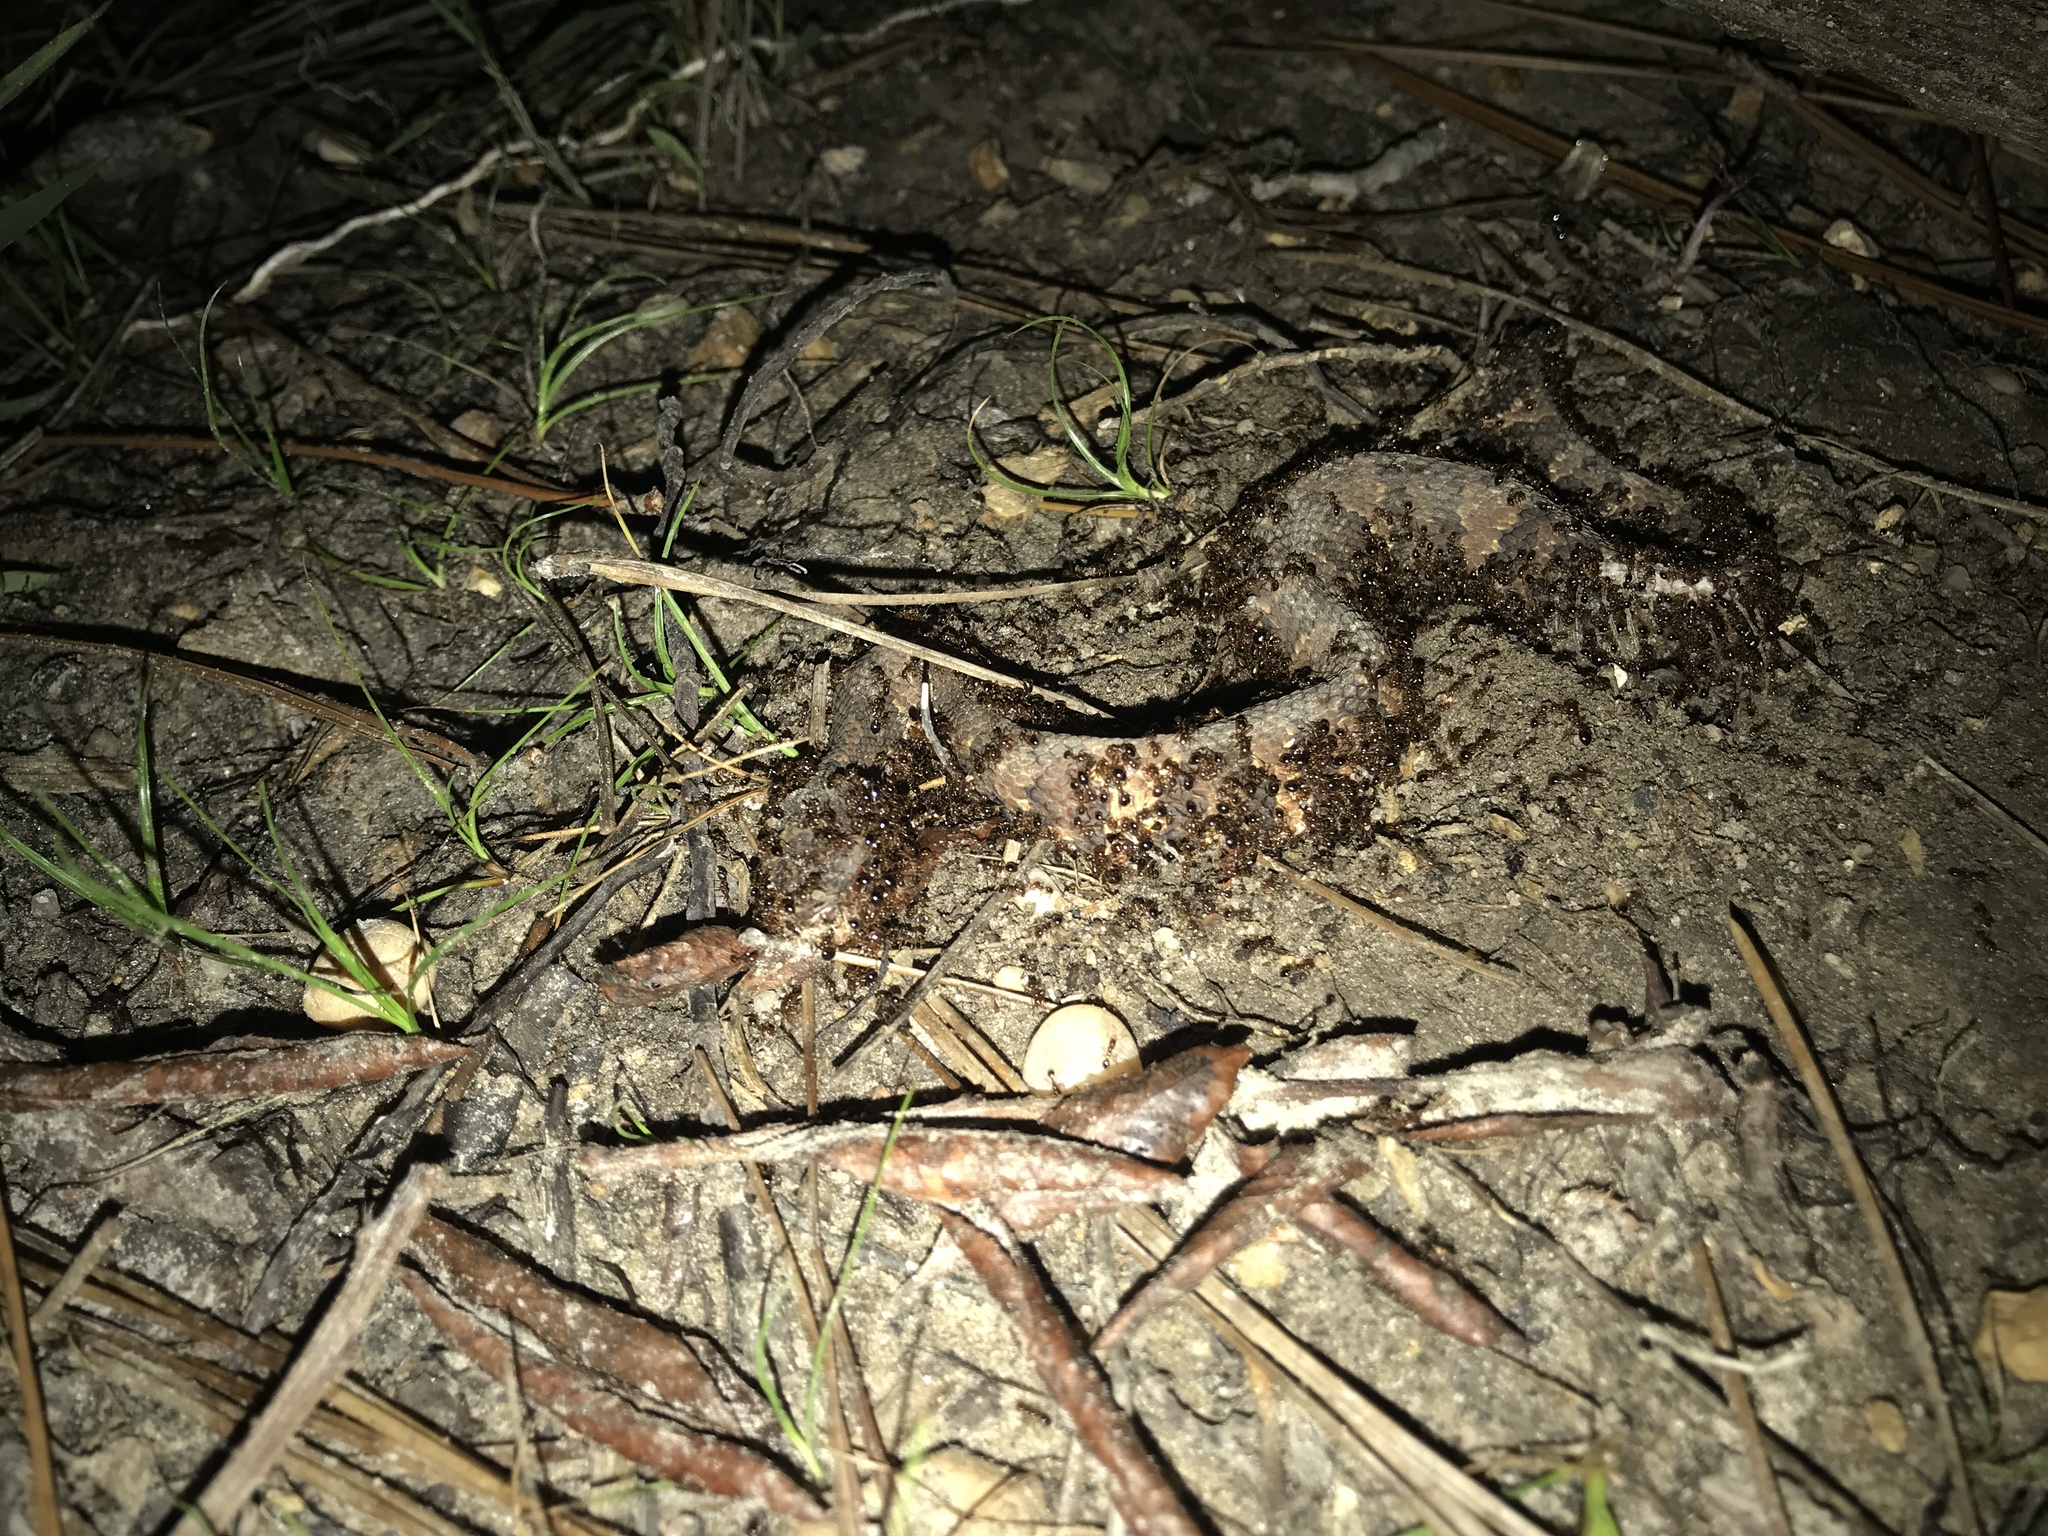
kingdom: Animalia
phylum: Chordata
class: Squamata
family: Viperidae
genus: Agkistrodon
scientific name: Agkistrodon piscivorus
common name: Cottonmouth
